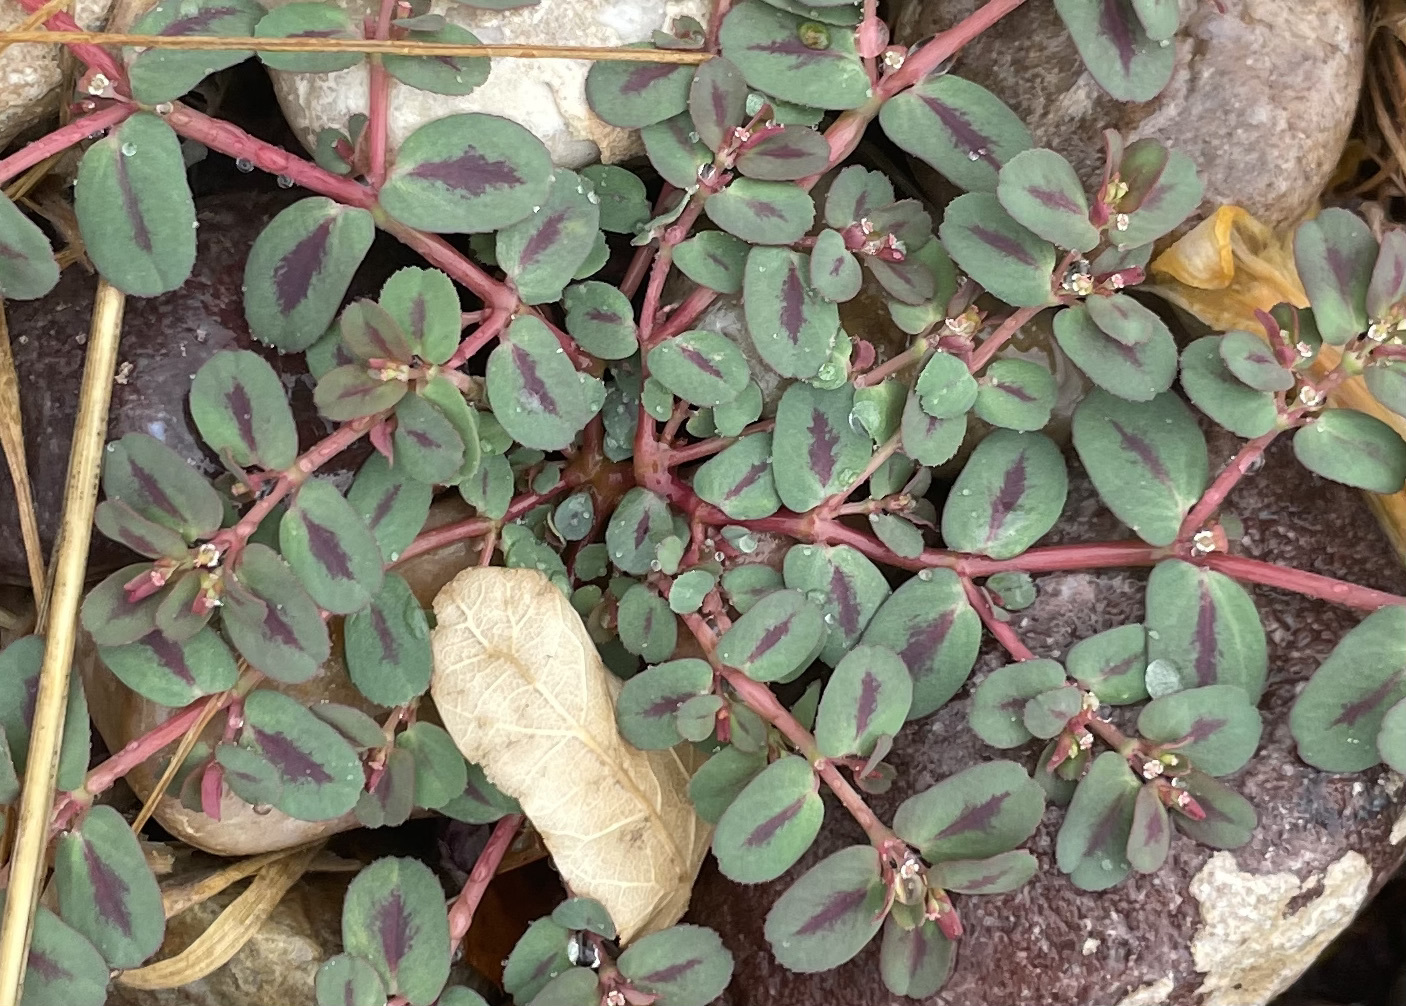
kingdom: Plantae
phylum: Tracheophyta
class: Magnoliopsida
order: Malpighiales
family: Euphorbiaceae
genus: Euphorbia
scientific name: Euphorbia serpillifolia
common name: Thyme-leaf spurge
